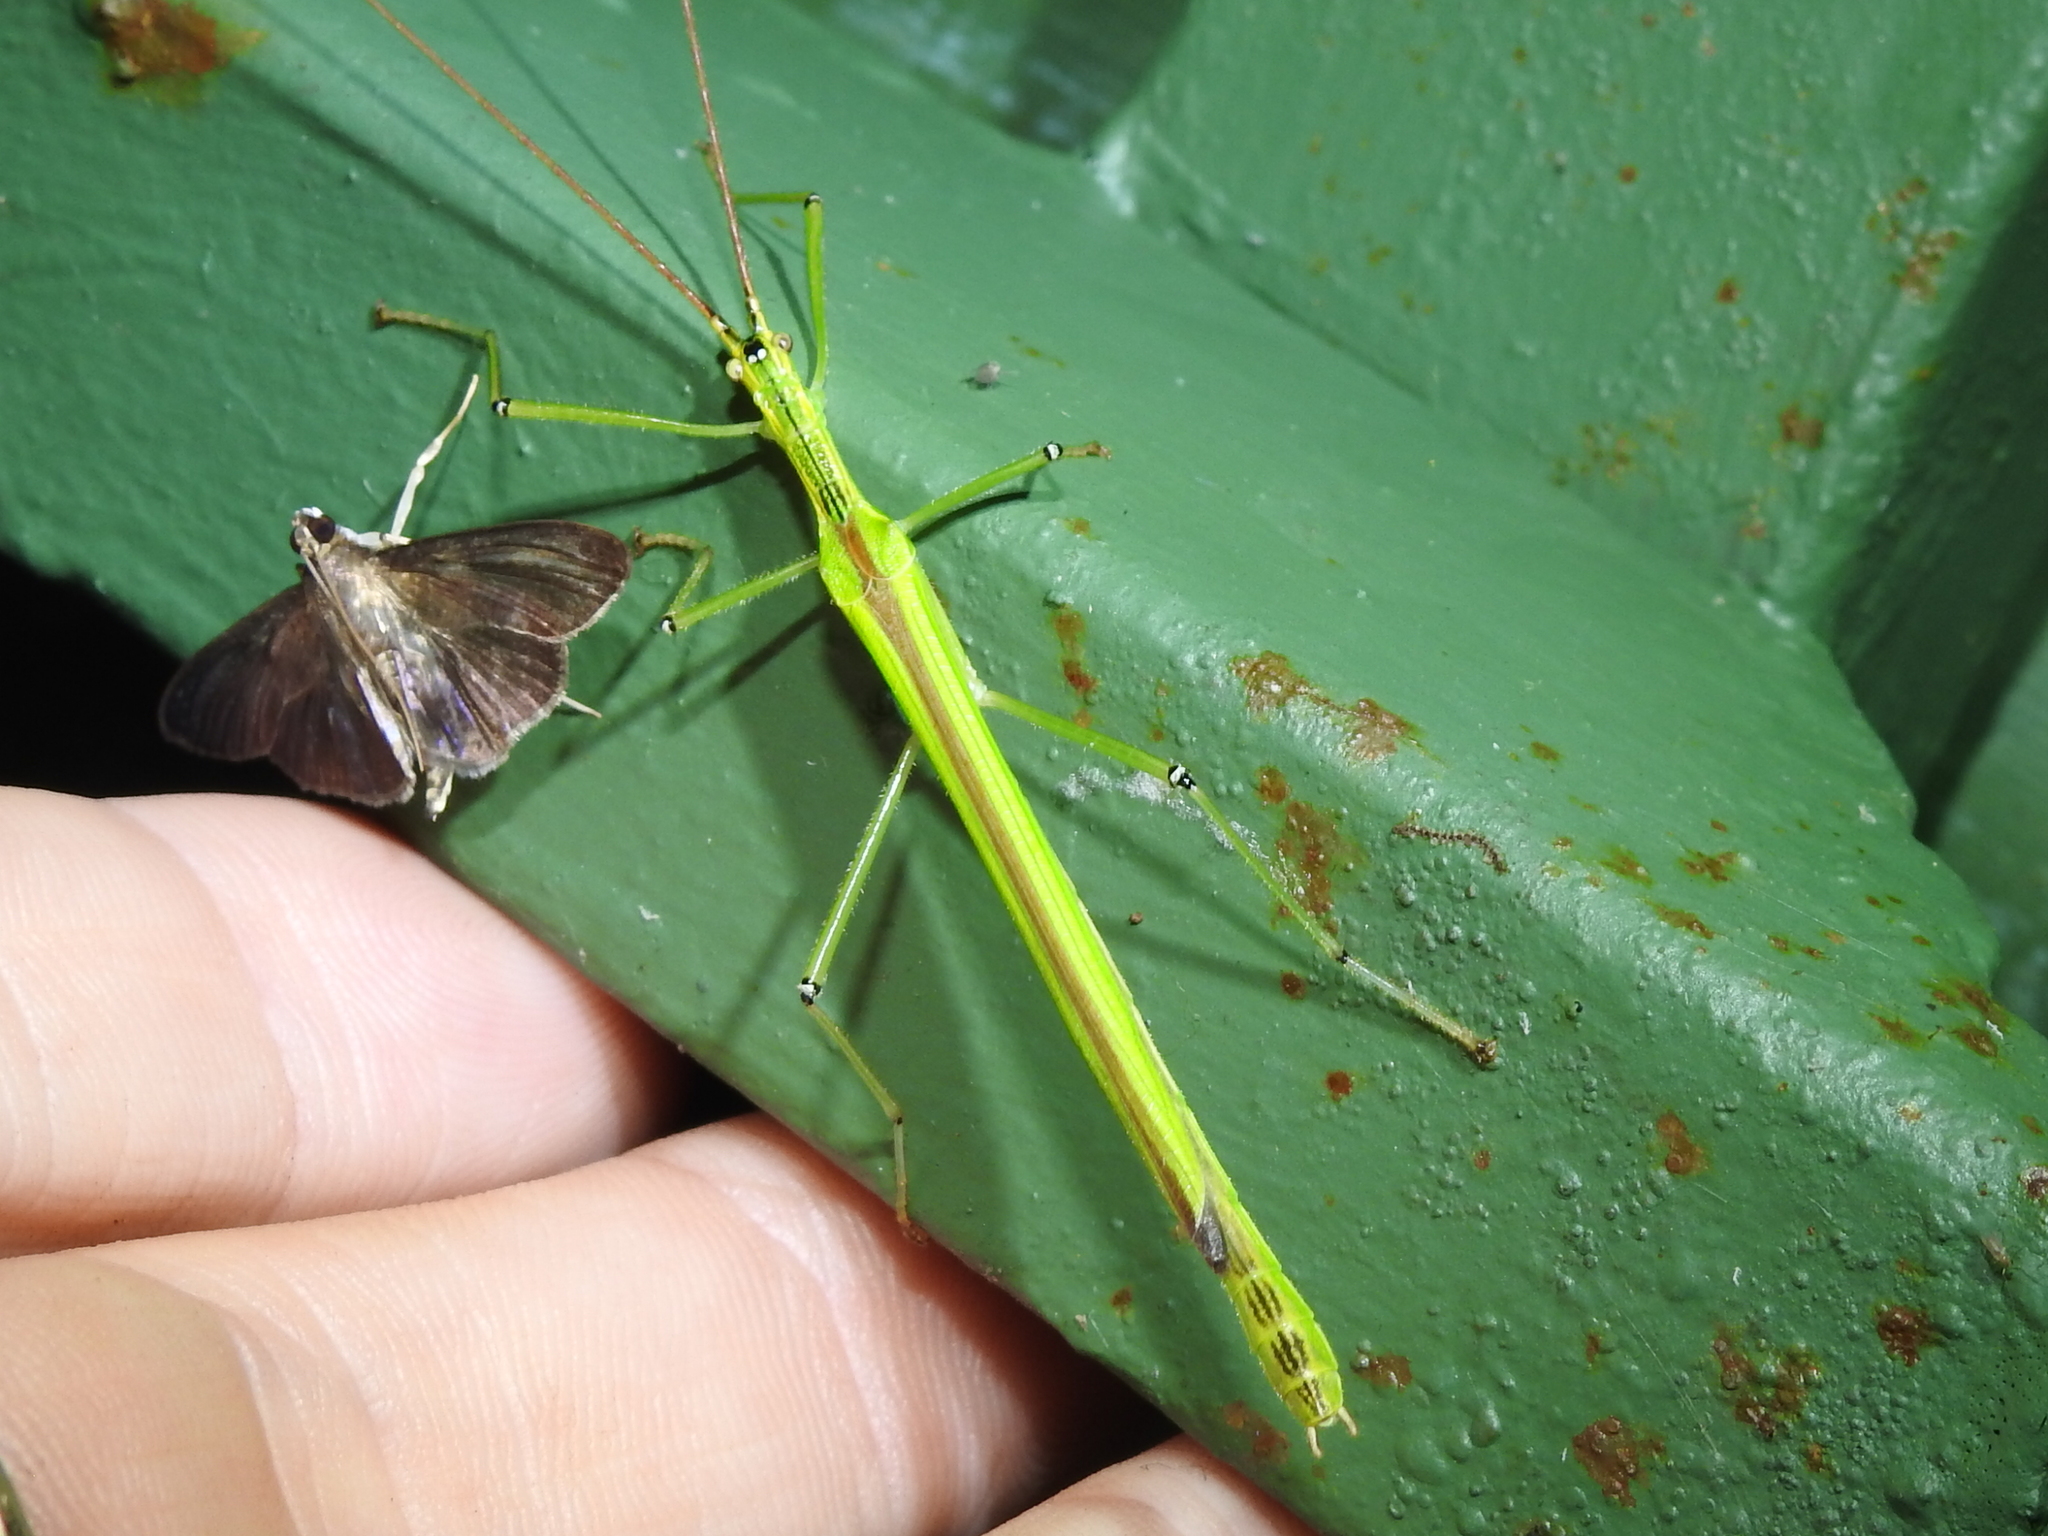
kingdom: Animalia
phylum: Arthropoda
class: Insecta
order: Phasmida
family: Pseudophasmatidae
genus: Anthericonia
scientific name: Anthericonia anketeschke
